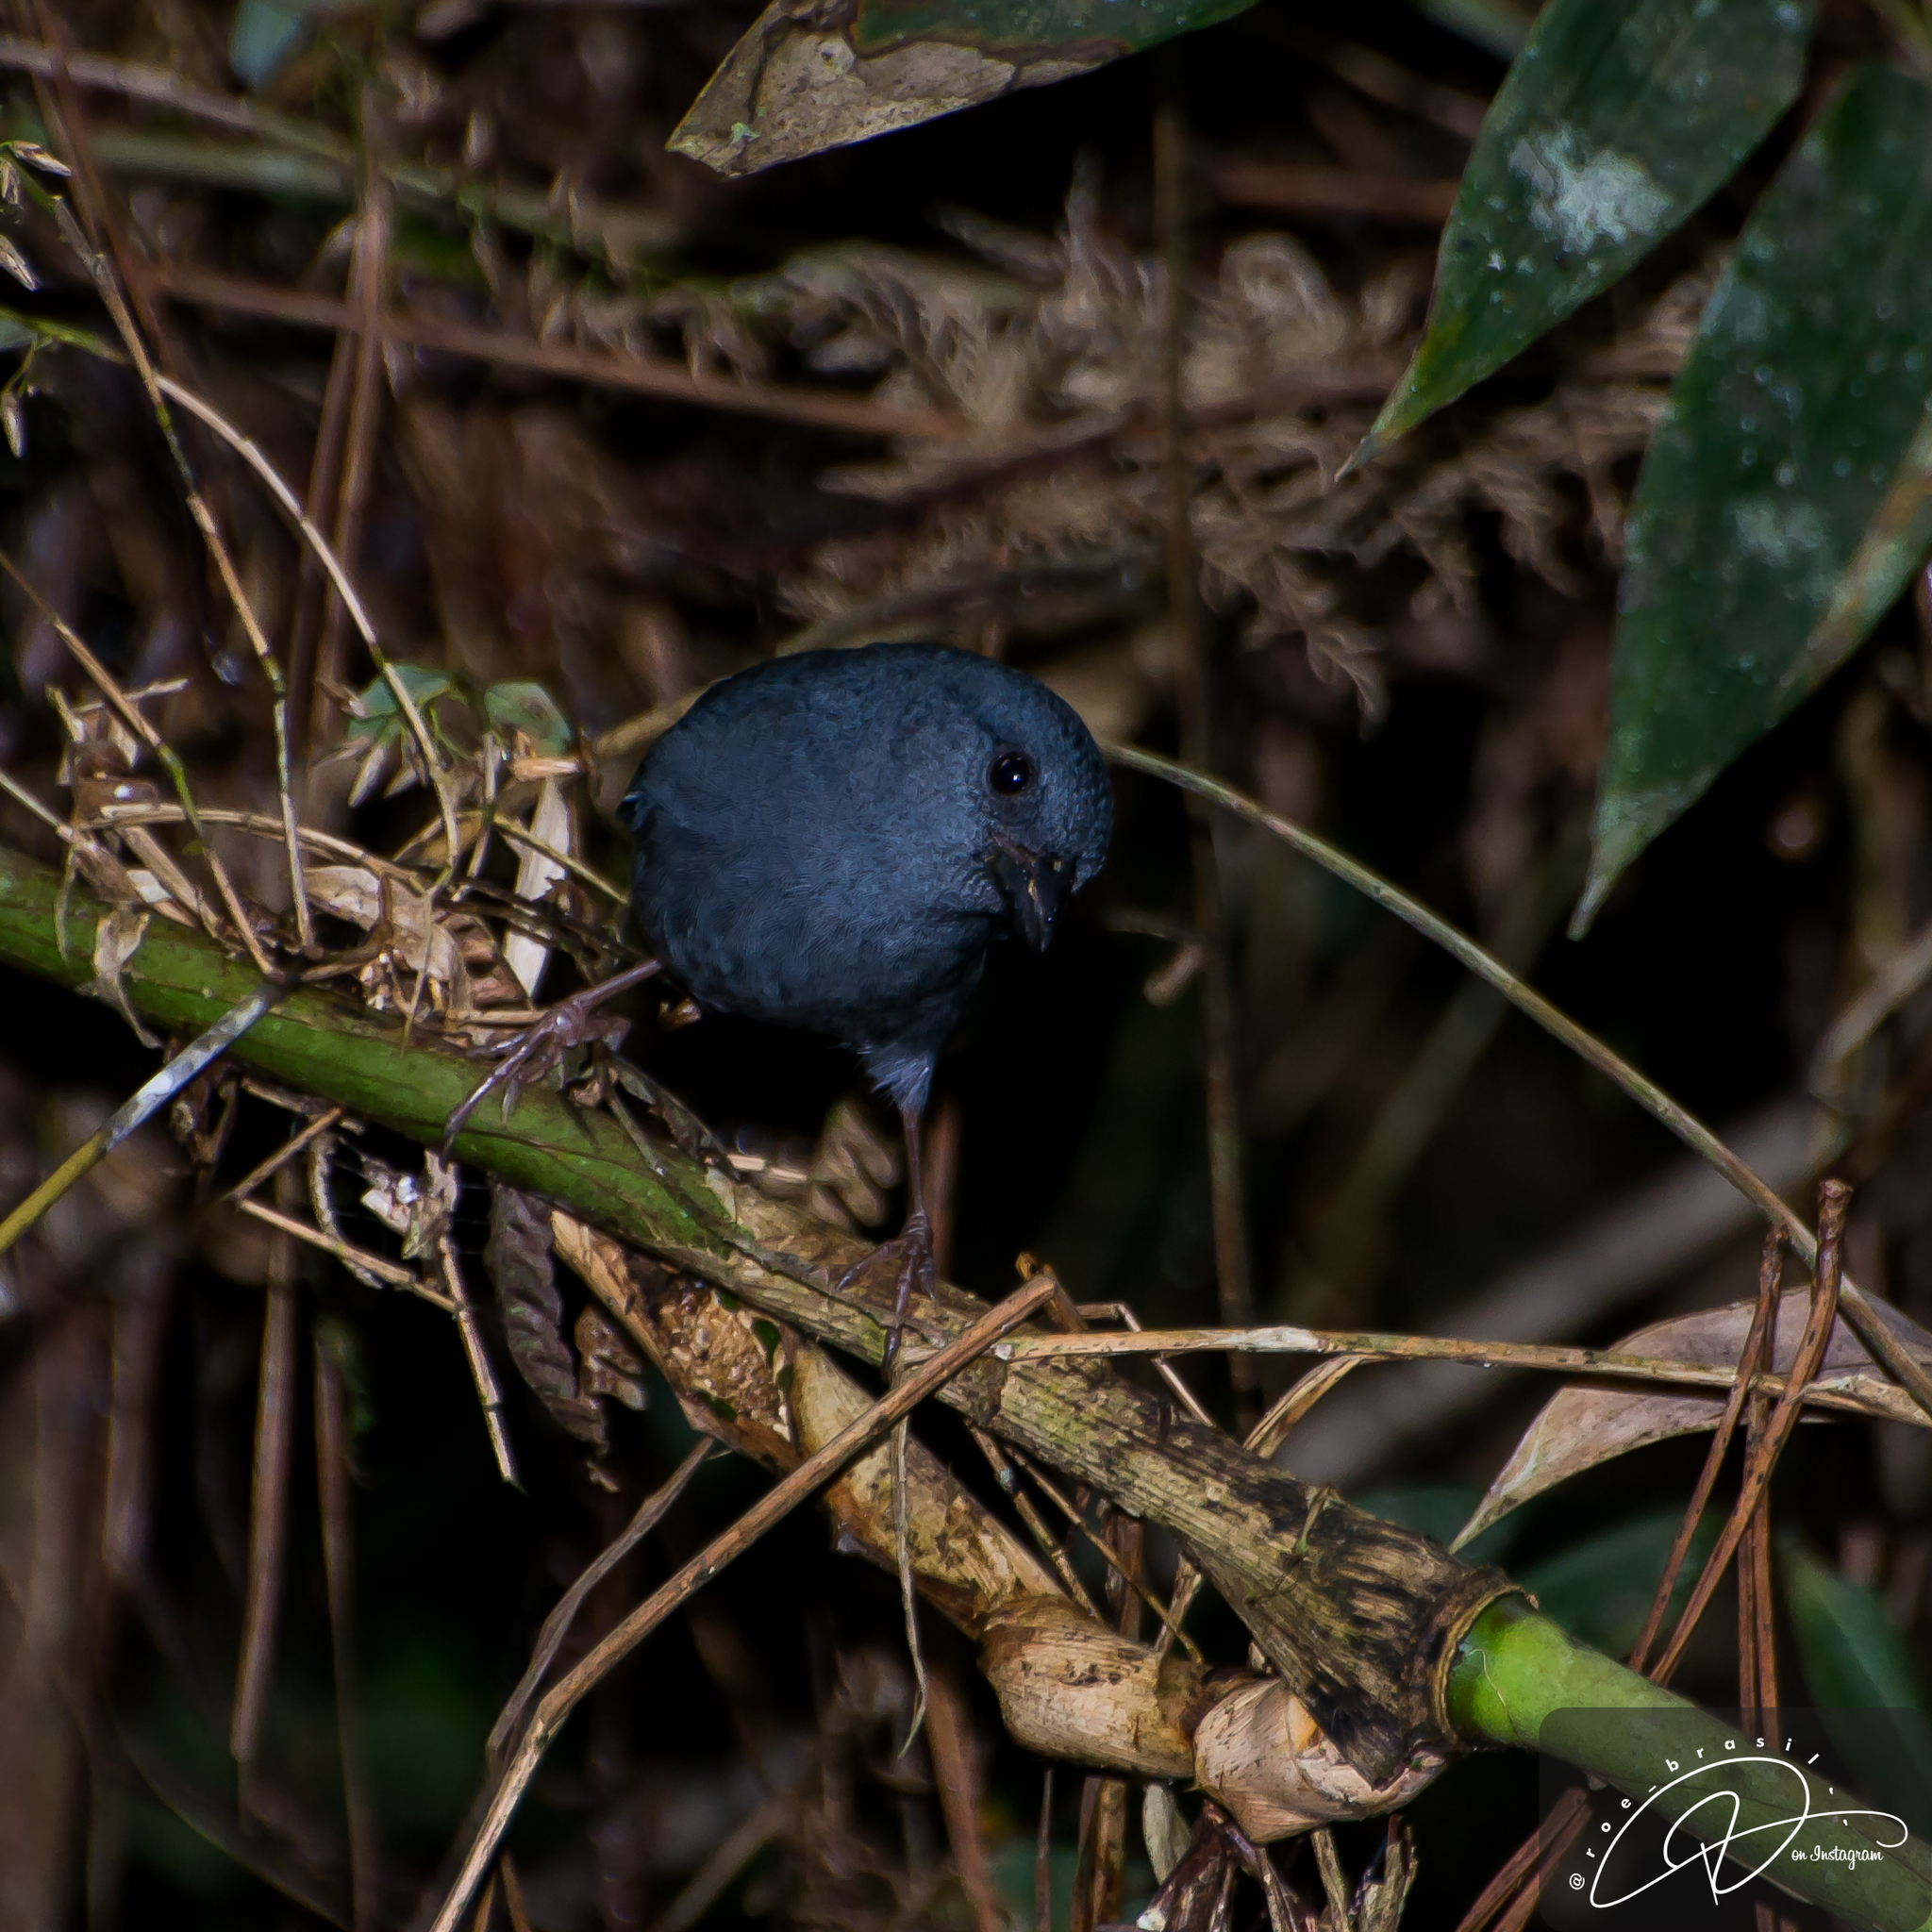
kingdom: Animalia
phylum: Chordata
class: Aves
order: Passeriformes
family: Thraupidae
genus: Haplospiza
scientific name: Haplospiza unicolor
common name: Uniform finch
